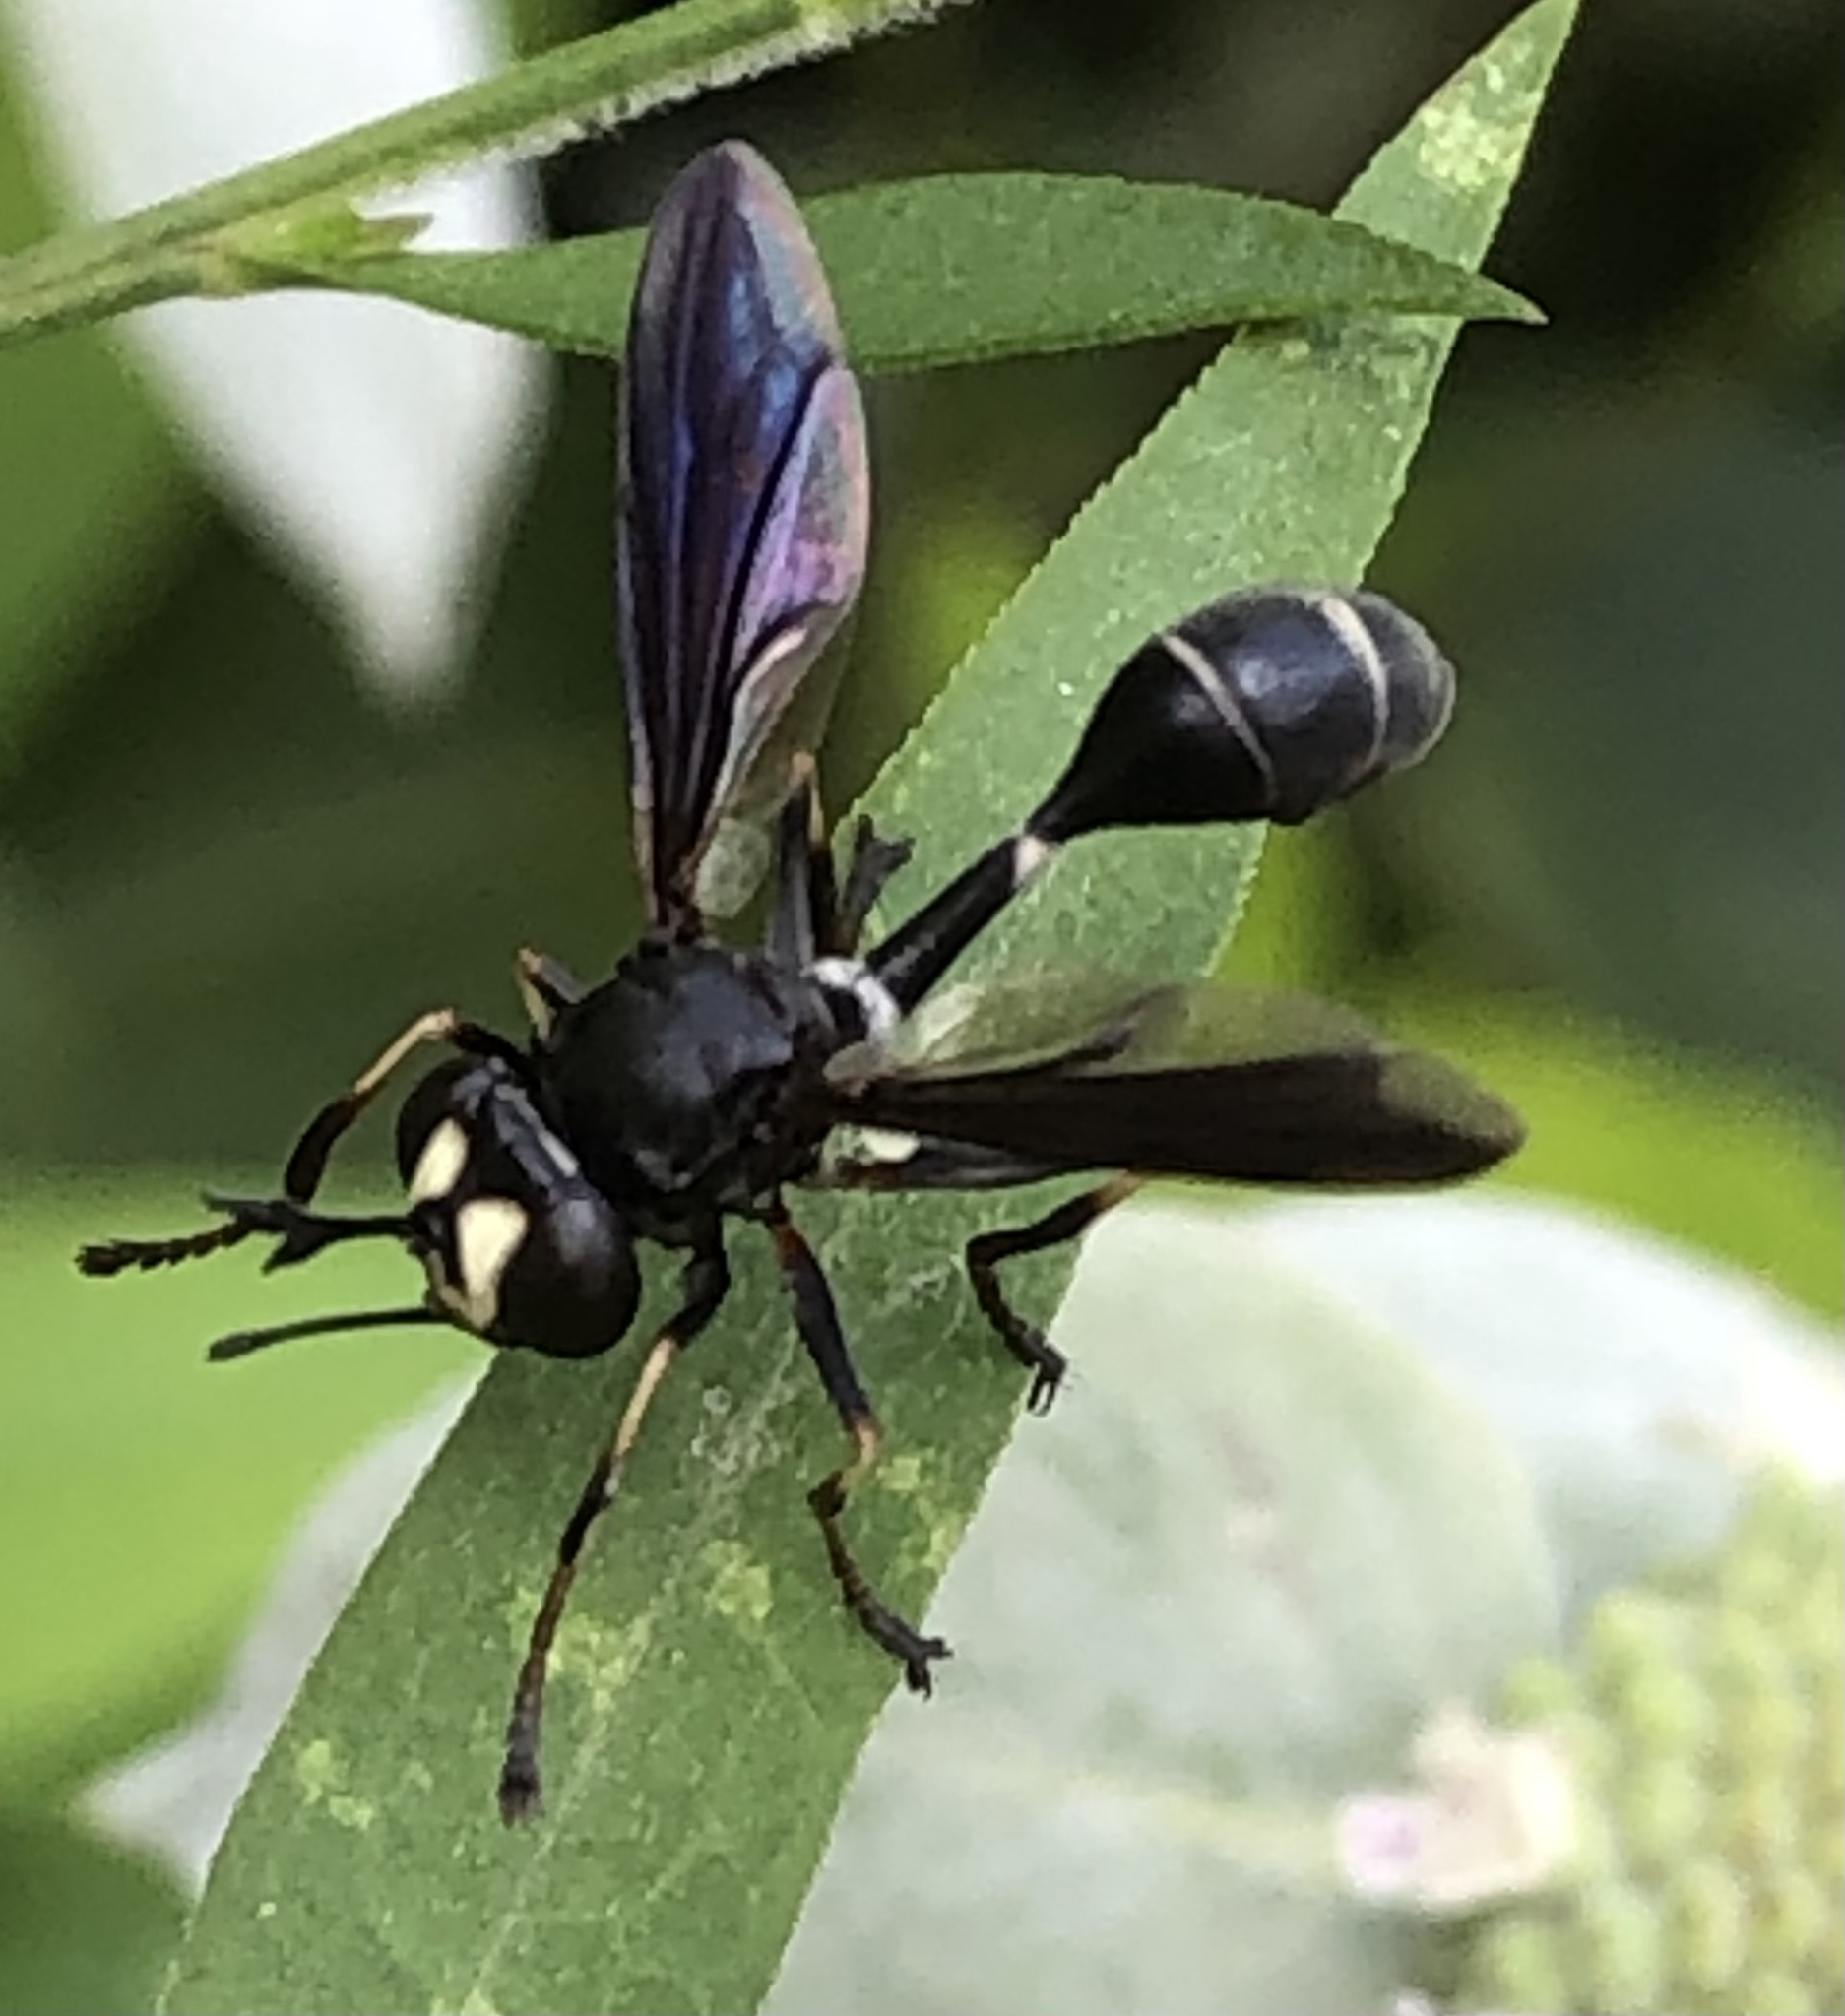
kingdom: Animalia
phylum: Arthropoda
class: Insecta
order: Diptera
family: Conopidae
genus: Physocephala
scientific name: Physocephala tibialis
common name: Common eastern physocephala
